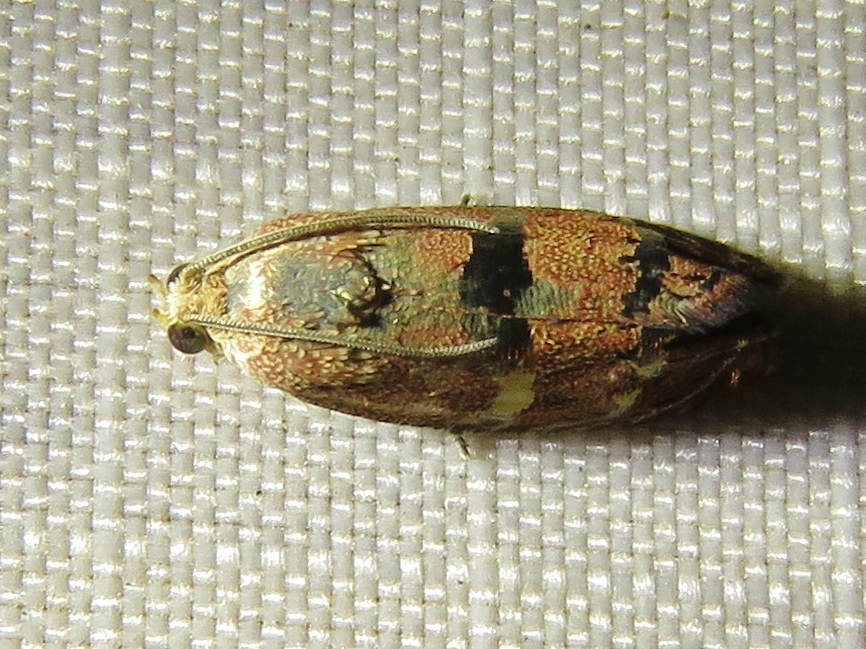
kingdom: Animalia
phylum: Arthropoda
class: Insecta
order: Lepidoptera
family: Tortricidae
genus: Cydia
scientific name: Cydia latiferreana
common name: Filbertworm moth
